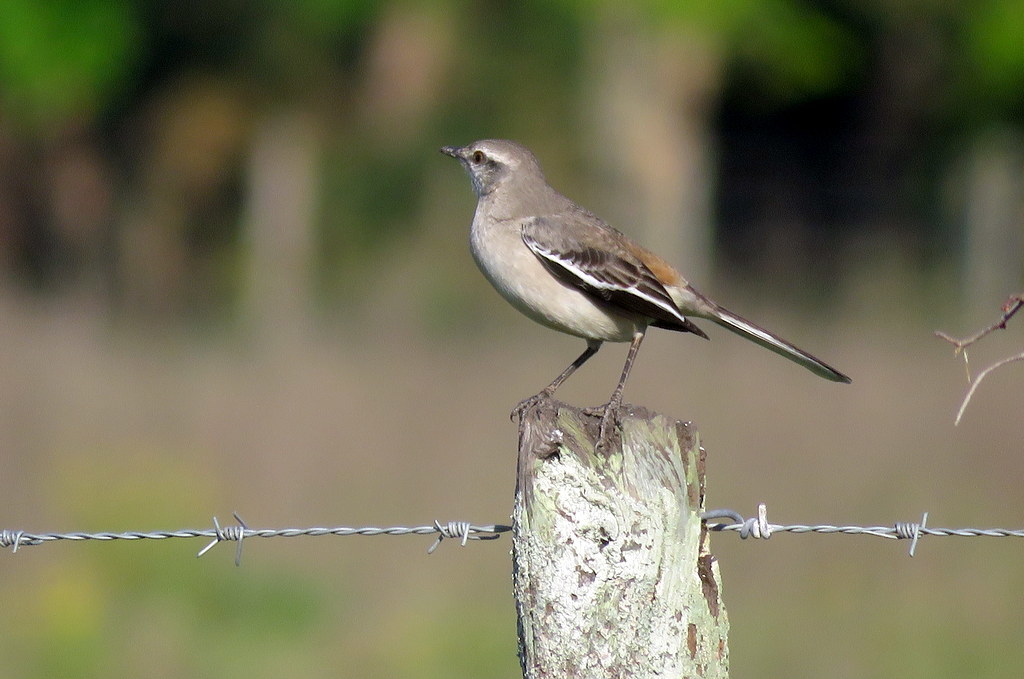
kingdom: Animalia
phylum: Chordata
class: Aves
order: Passeriformes
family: Mimidae
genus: Mimus
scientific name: Mimus triurus
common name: White-banded mockingbird
